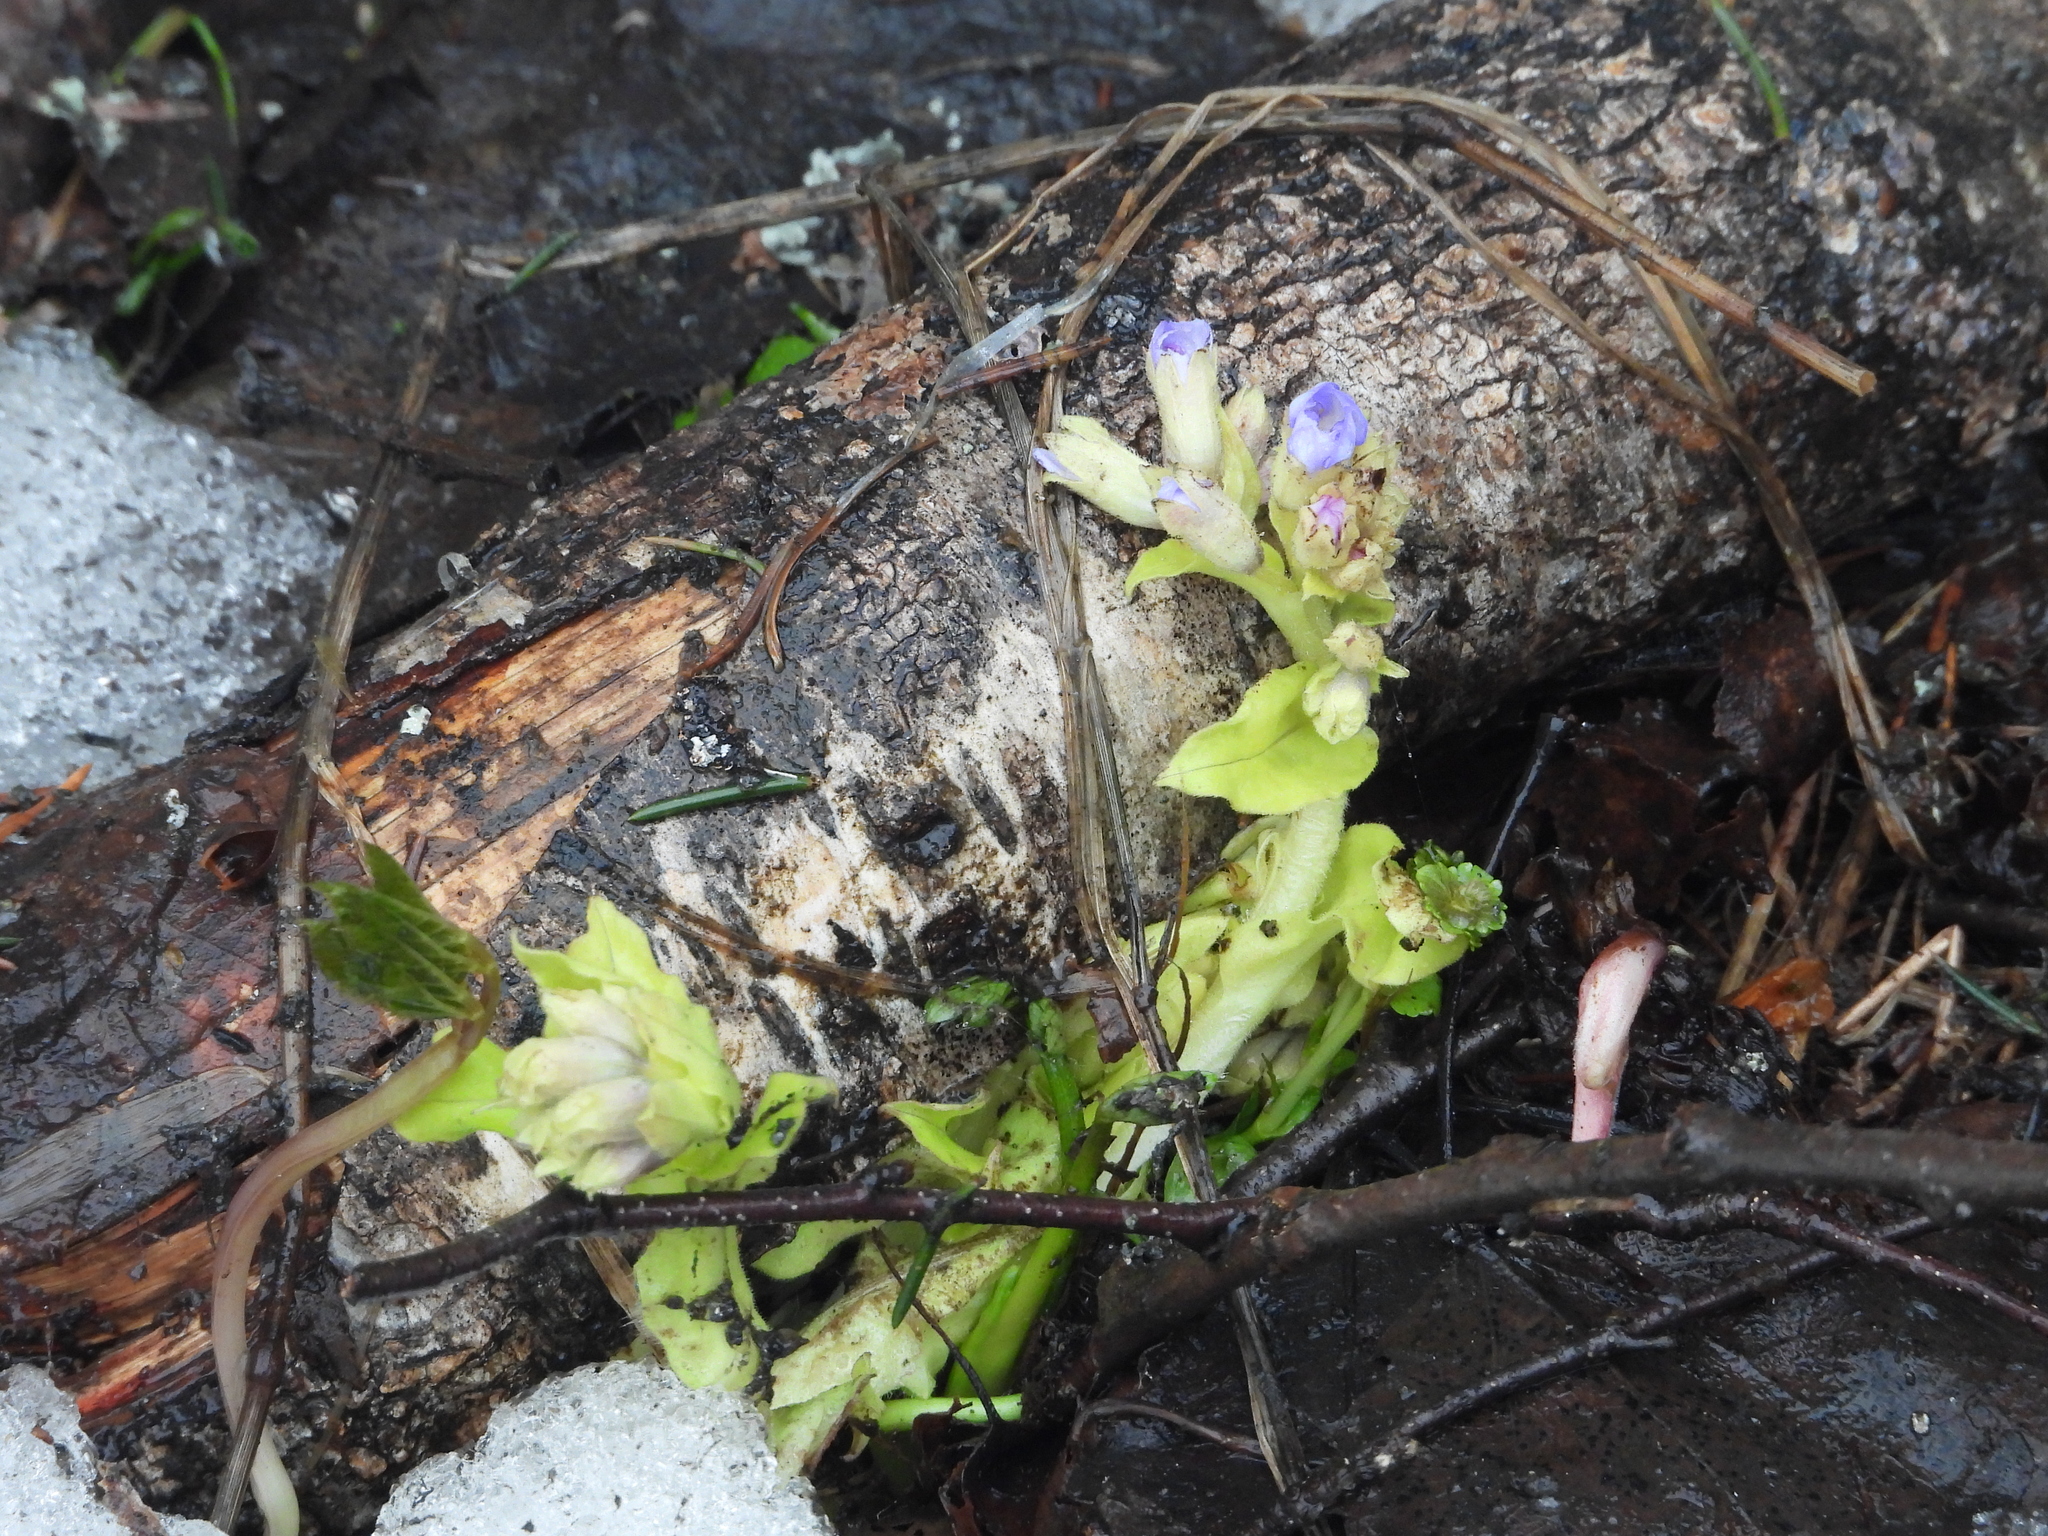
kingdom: Plantae
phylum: Tracheophyta
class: Magnoliopsida
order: Boraginales
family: Boraginaceae
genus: Pulmonaria
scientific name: Pulmonaria mollis
